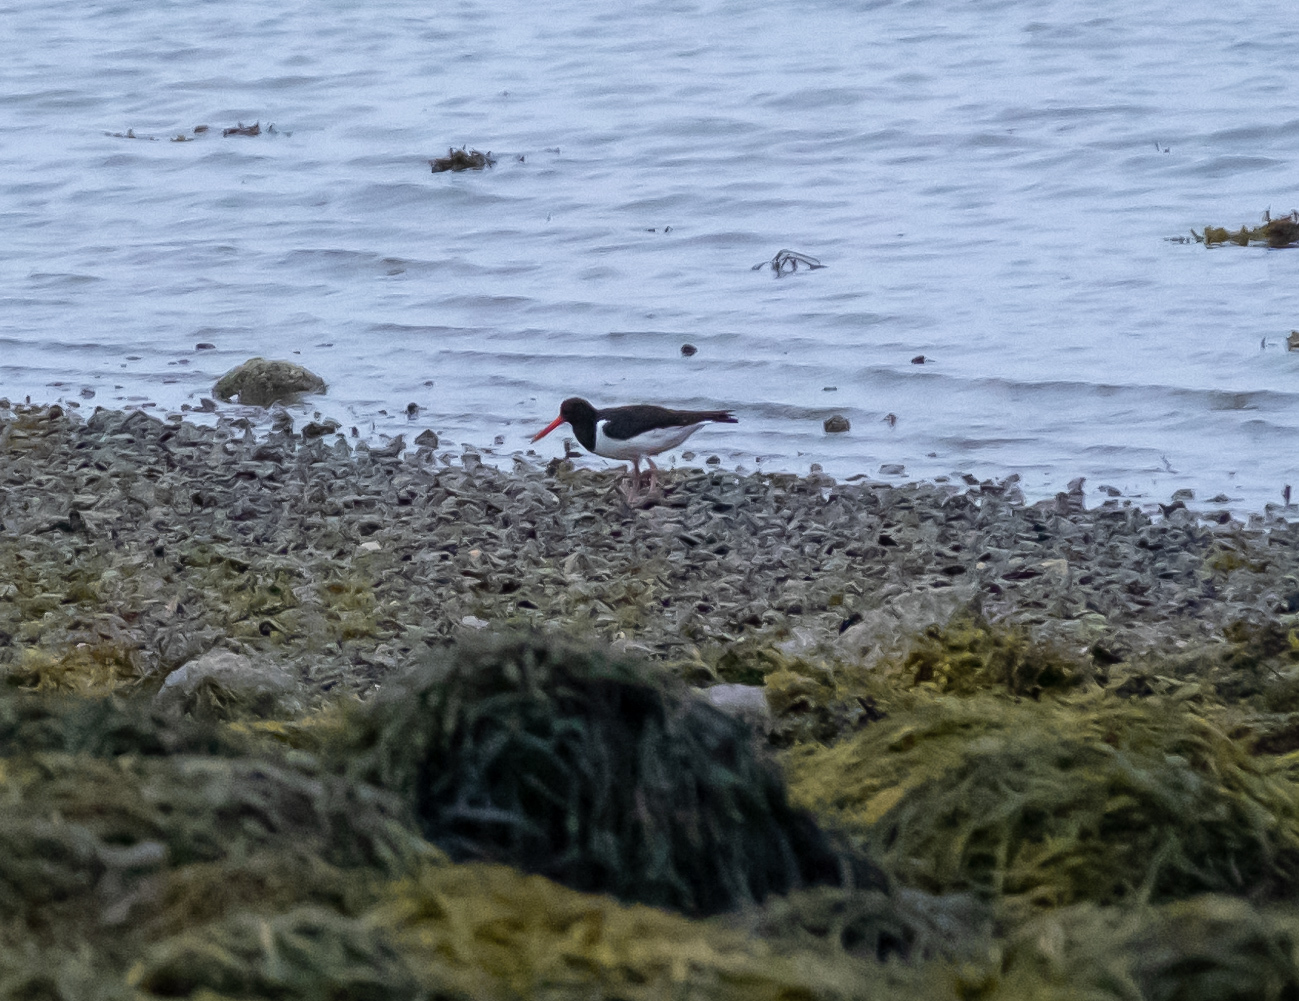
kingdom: Animalia
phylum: Chordata
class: Aves
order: Charadriiformes
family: Haematopodidae
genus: Haematopus
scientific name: Haematopus ostralegus
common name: Eurasian oystercatcher
